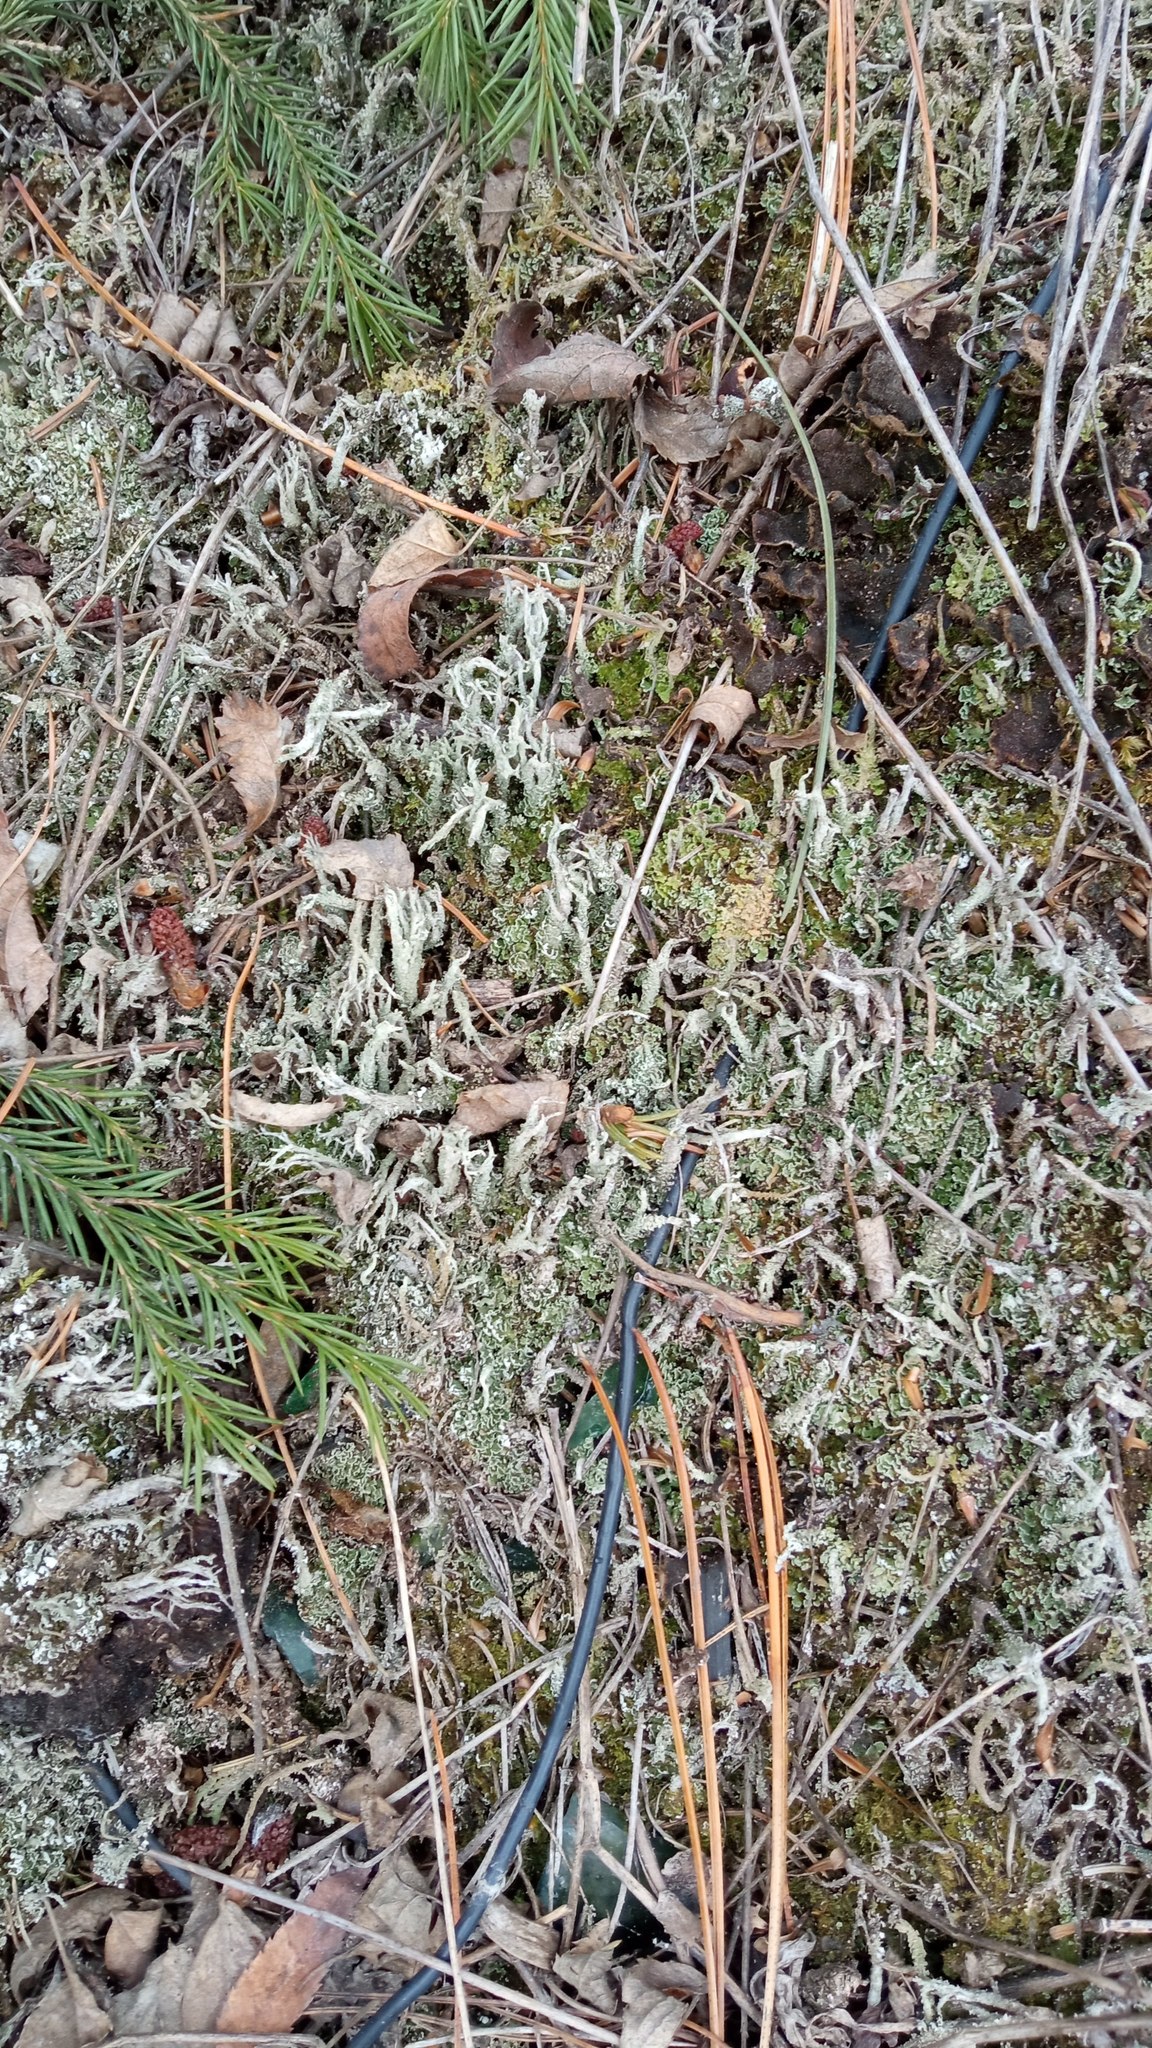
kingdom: Fungi
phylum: Ascomycota
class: Lecanoromycetes
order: Lecanorales
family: Cladoniaceae
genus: Cladonia
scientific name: Cladonia cenotea
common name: Powdered funnel lichen
